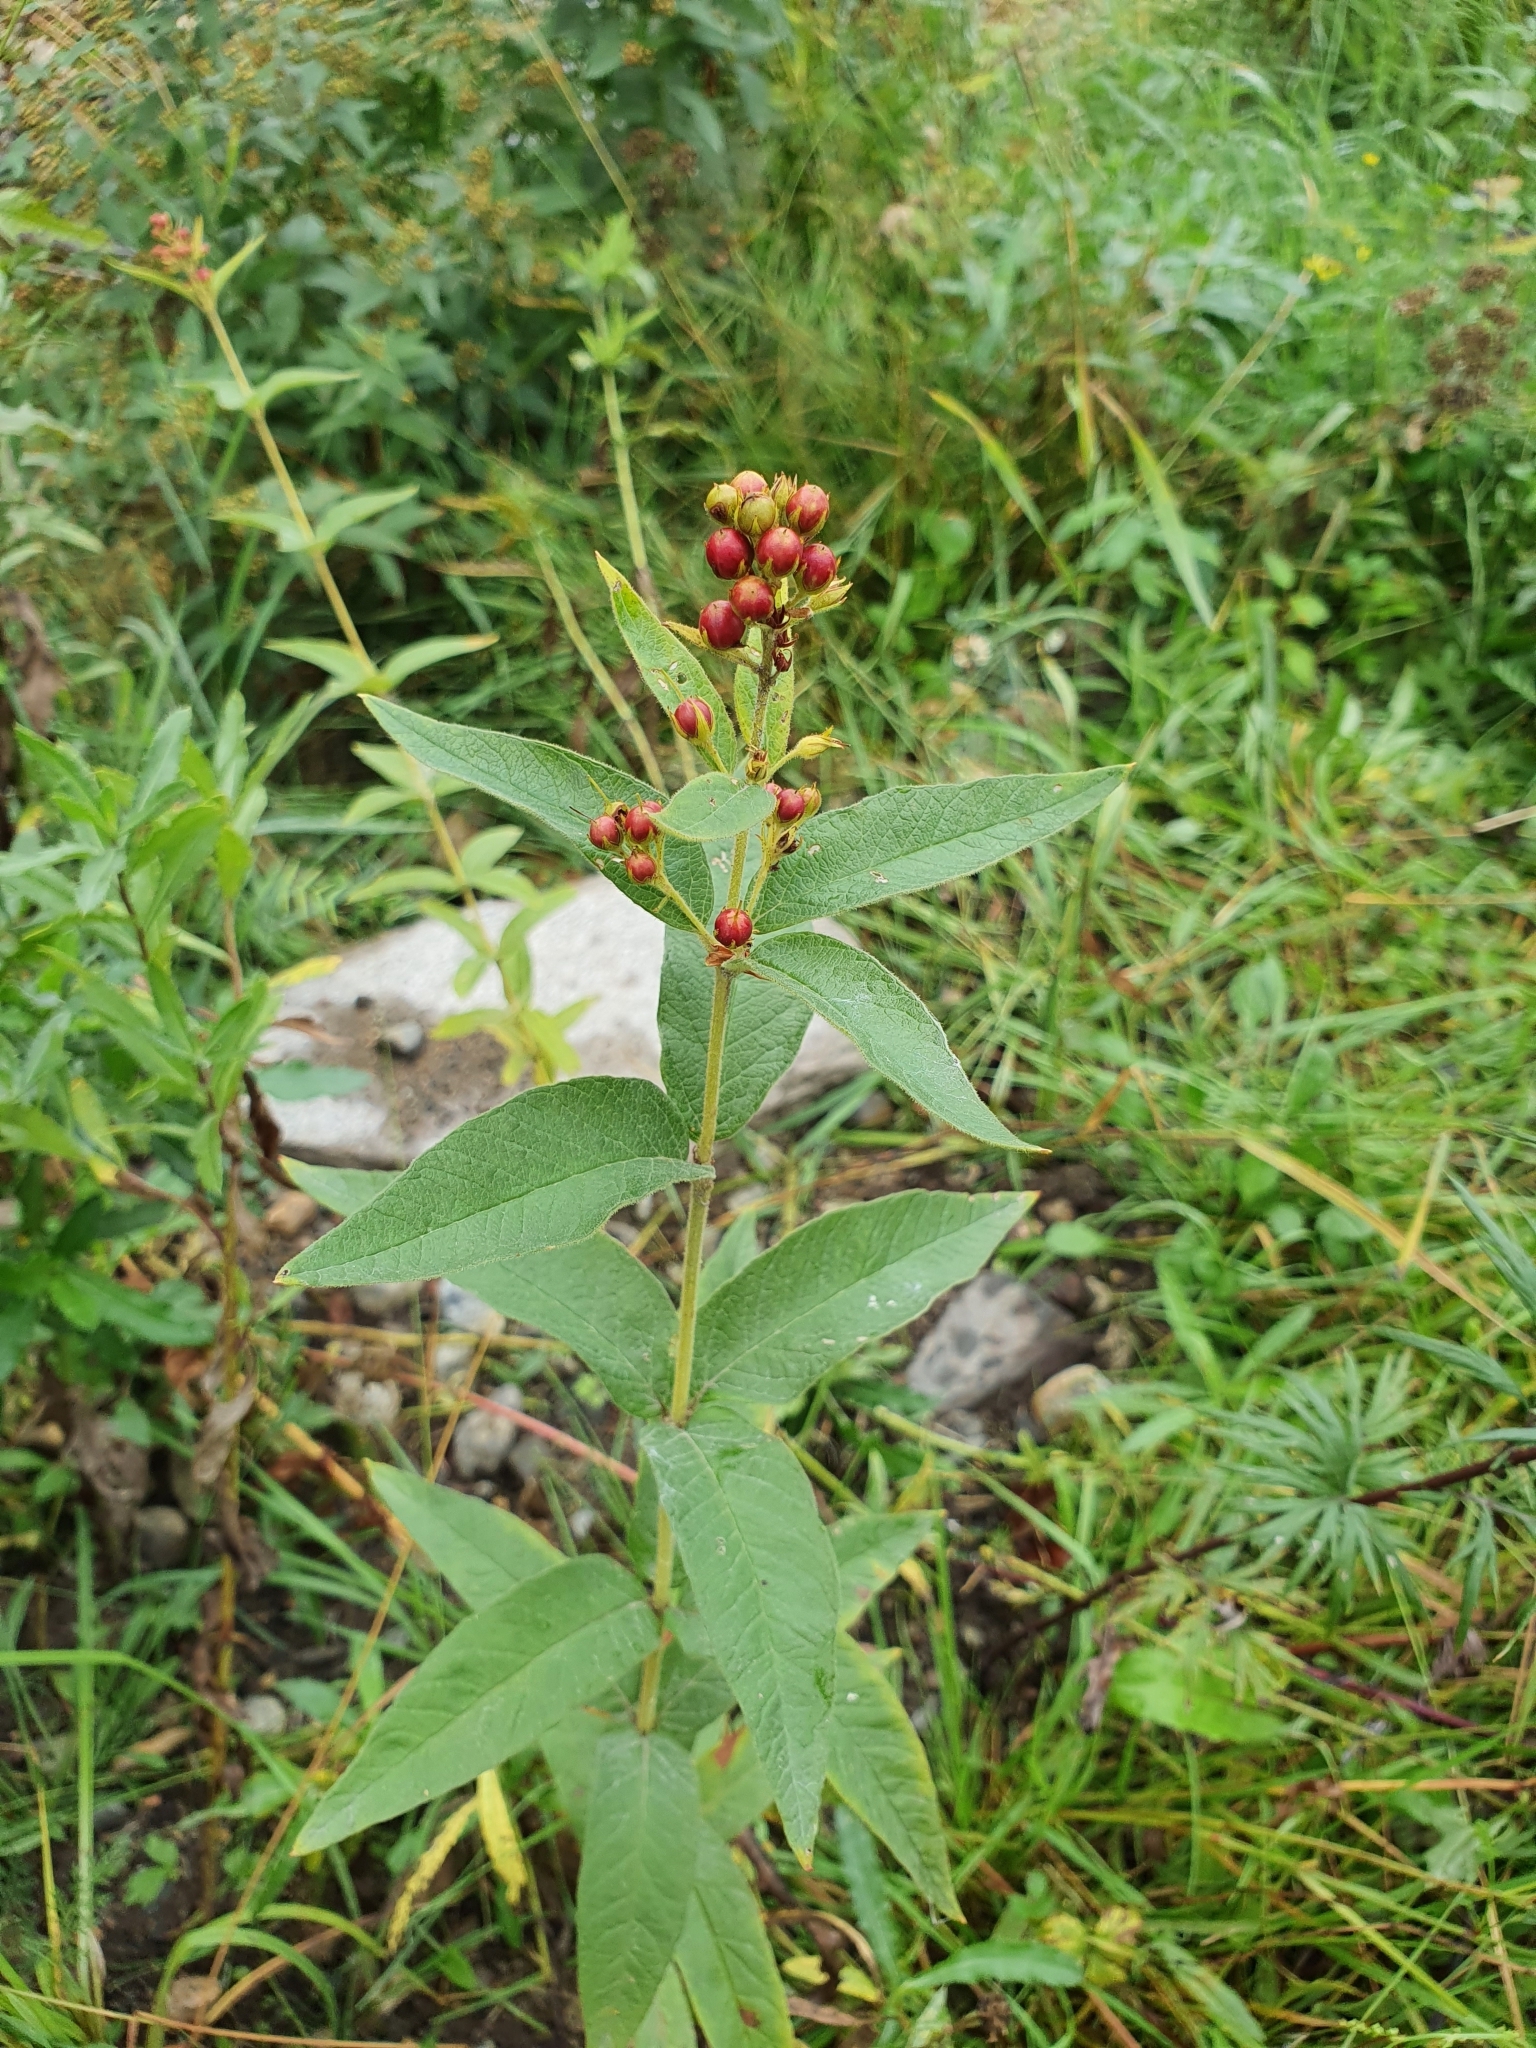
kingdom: Plantae
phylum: Tracheophyta
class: Magnoliopsida
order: Ericales
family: Primulaceae
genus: Lysimachia
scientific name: Lysimachia vulgaris
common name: Yellow loosestrife
